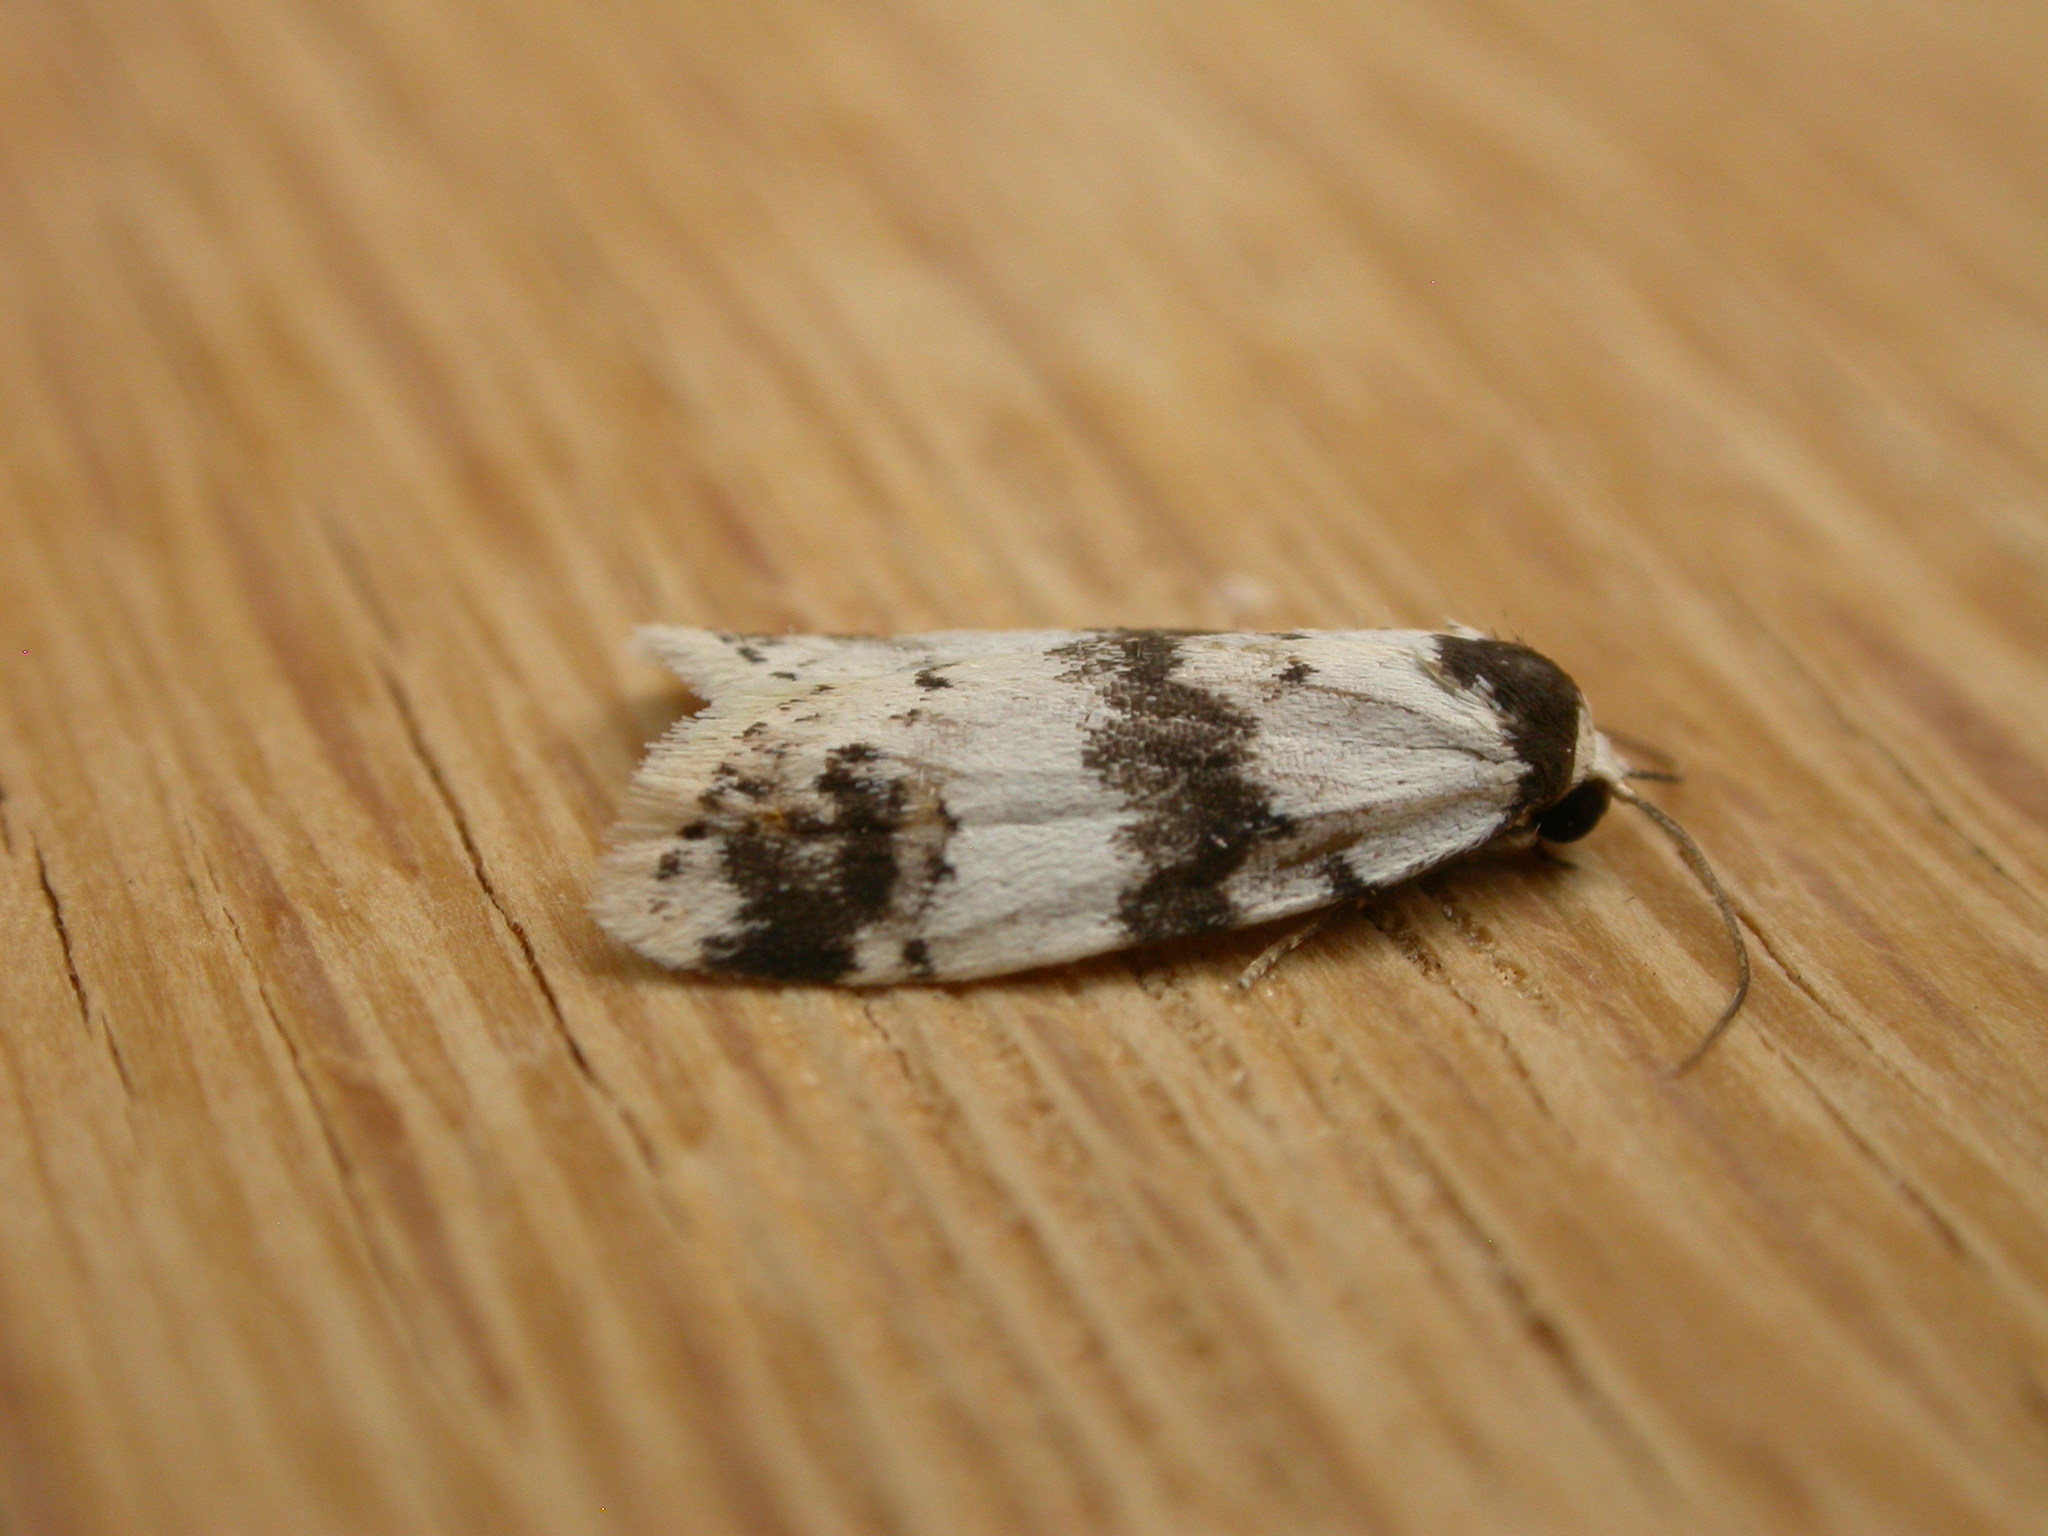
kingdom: Animalia
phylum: Arthropoda
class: Insecta
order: Lepidoptera
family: Erebidae
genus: Thallarcha
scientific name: Thallarcha sparsana
